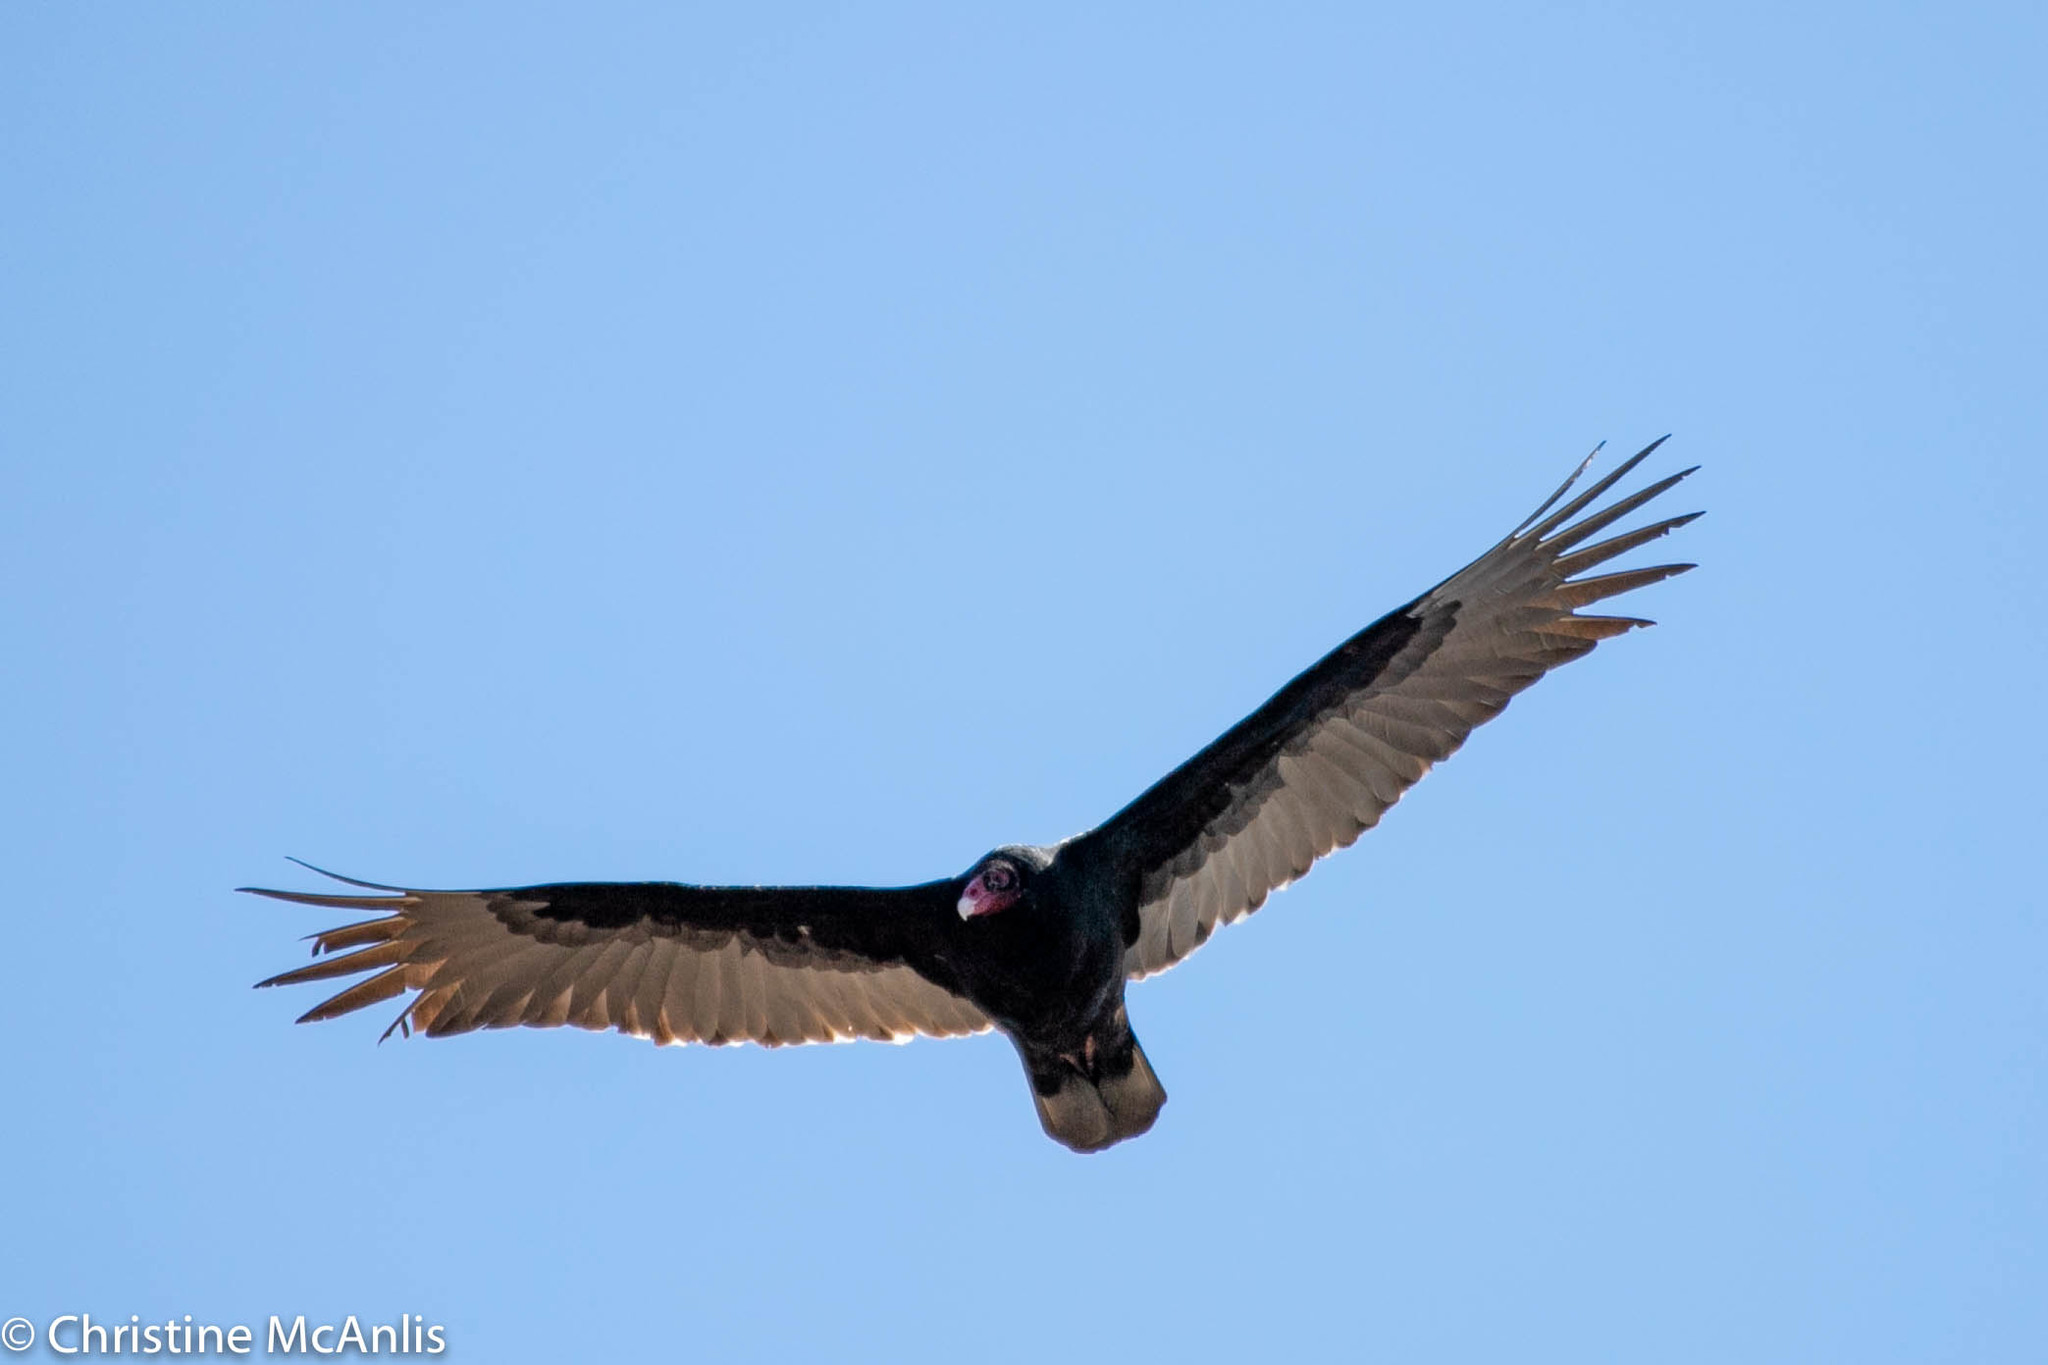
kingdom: Animalia
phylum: Chordata
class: Aves
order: Accipitriformes
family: Cathartidae
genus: Cathartes
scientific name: Cathartes aura
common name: Turkey vulture
